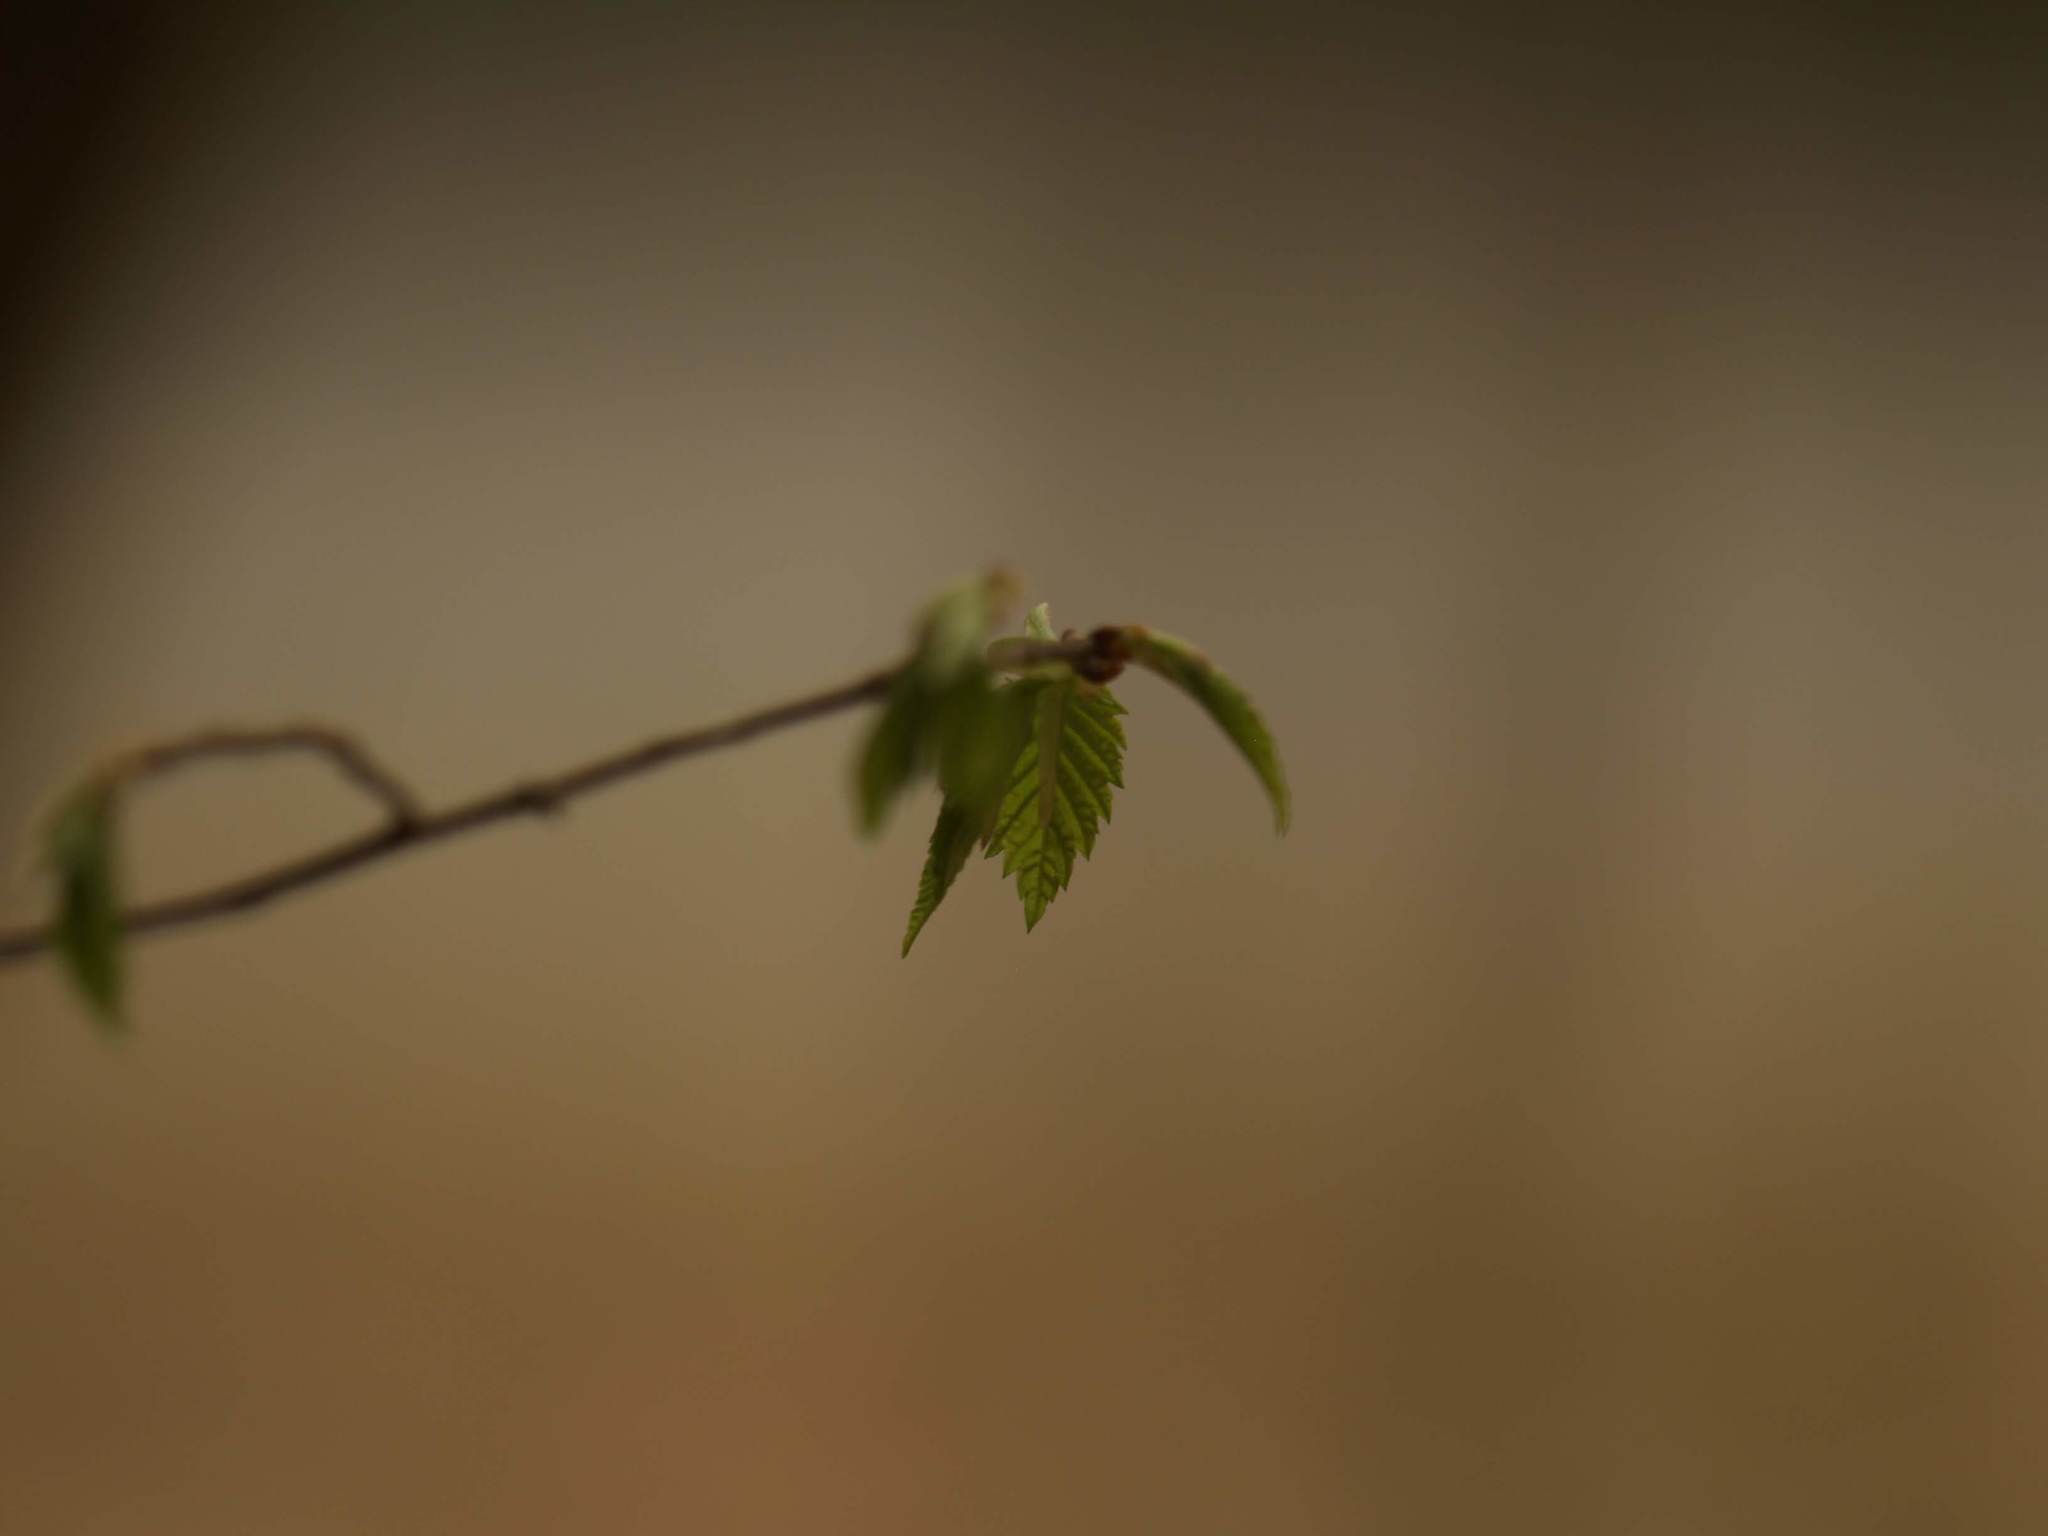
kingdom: Plantae
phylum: Tracheophyta
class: Magnoliopsida
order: Fagales
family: Fagaceae
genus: Fagus
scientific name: Fagus grandifolia
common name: American beech
